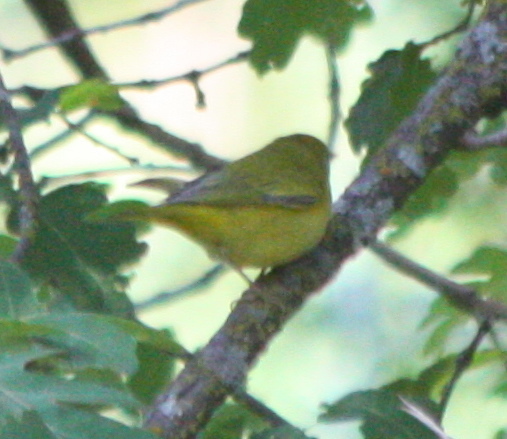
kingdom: Animalia
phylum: Chordata
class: Aves
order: Passeriformes
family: Parulidae
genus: Setophaga
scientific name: Setophaga petechia
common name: Yellow warbler
